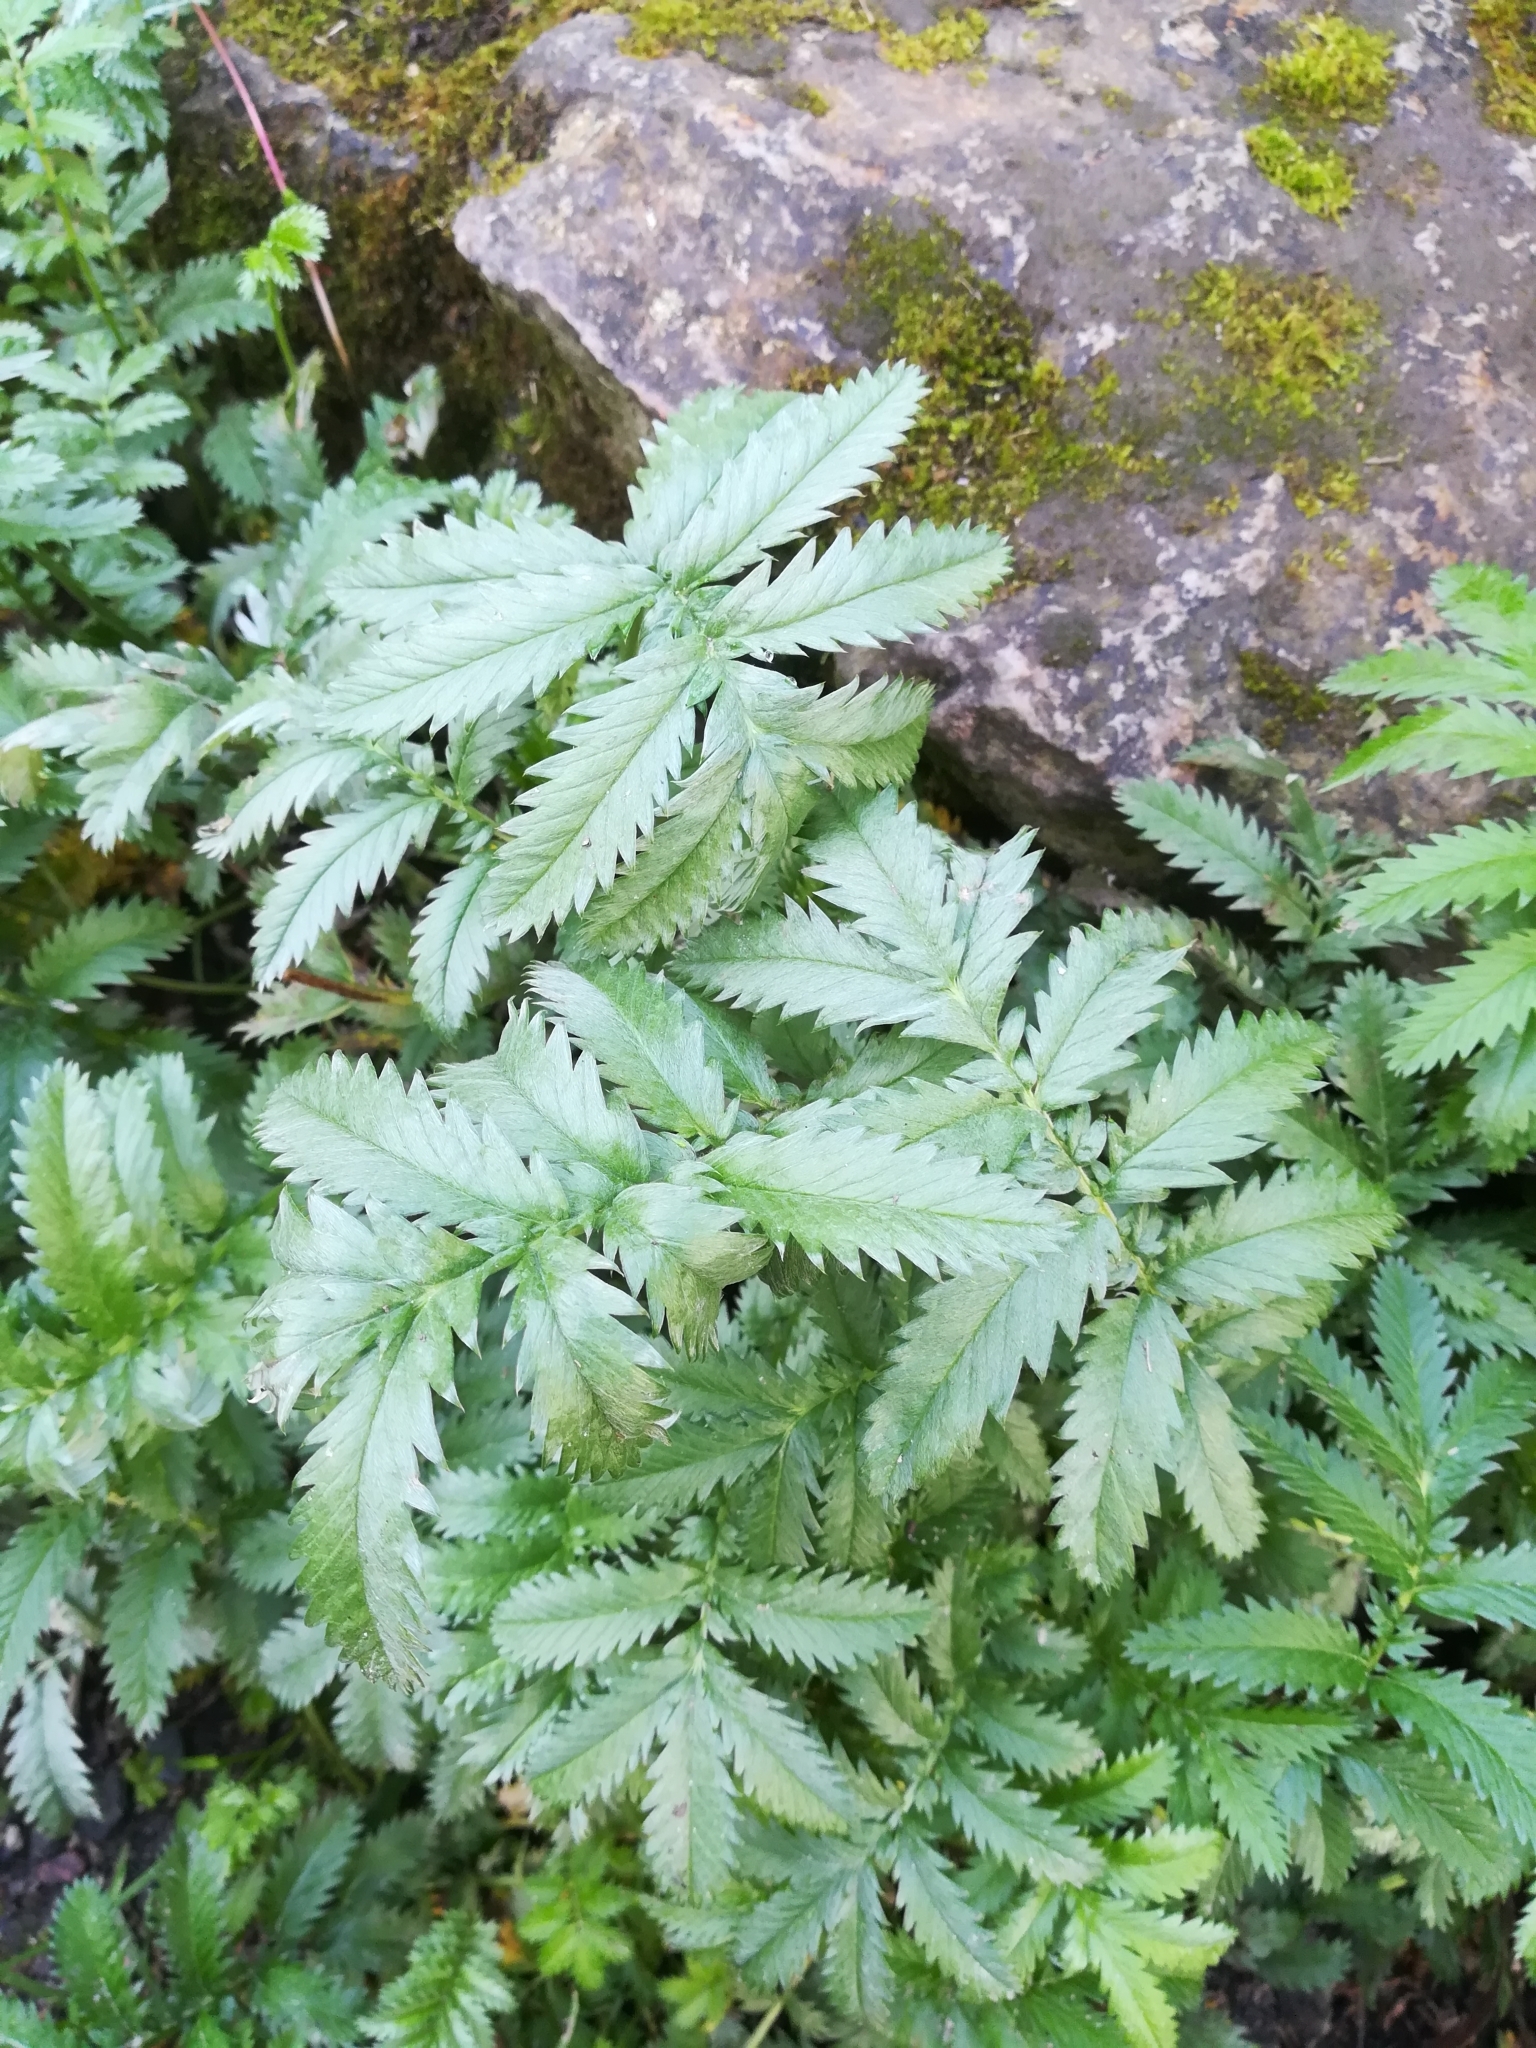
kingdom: Plantae
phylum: Tracheophyta
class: Magnoliopsida
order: Rosales
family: Rosaceae
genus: Argentina
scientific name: Argentina anserina
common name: Common silverweed
